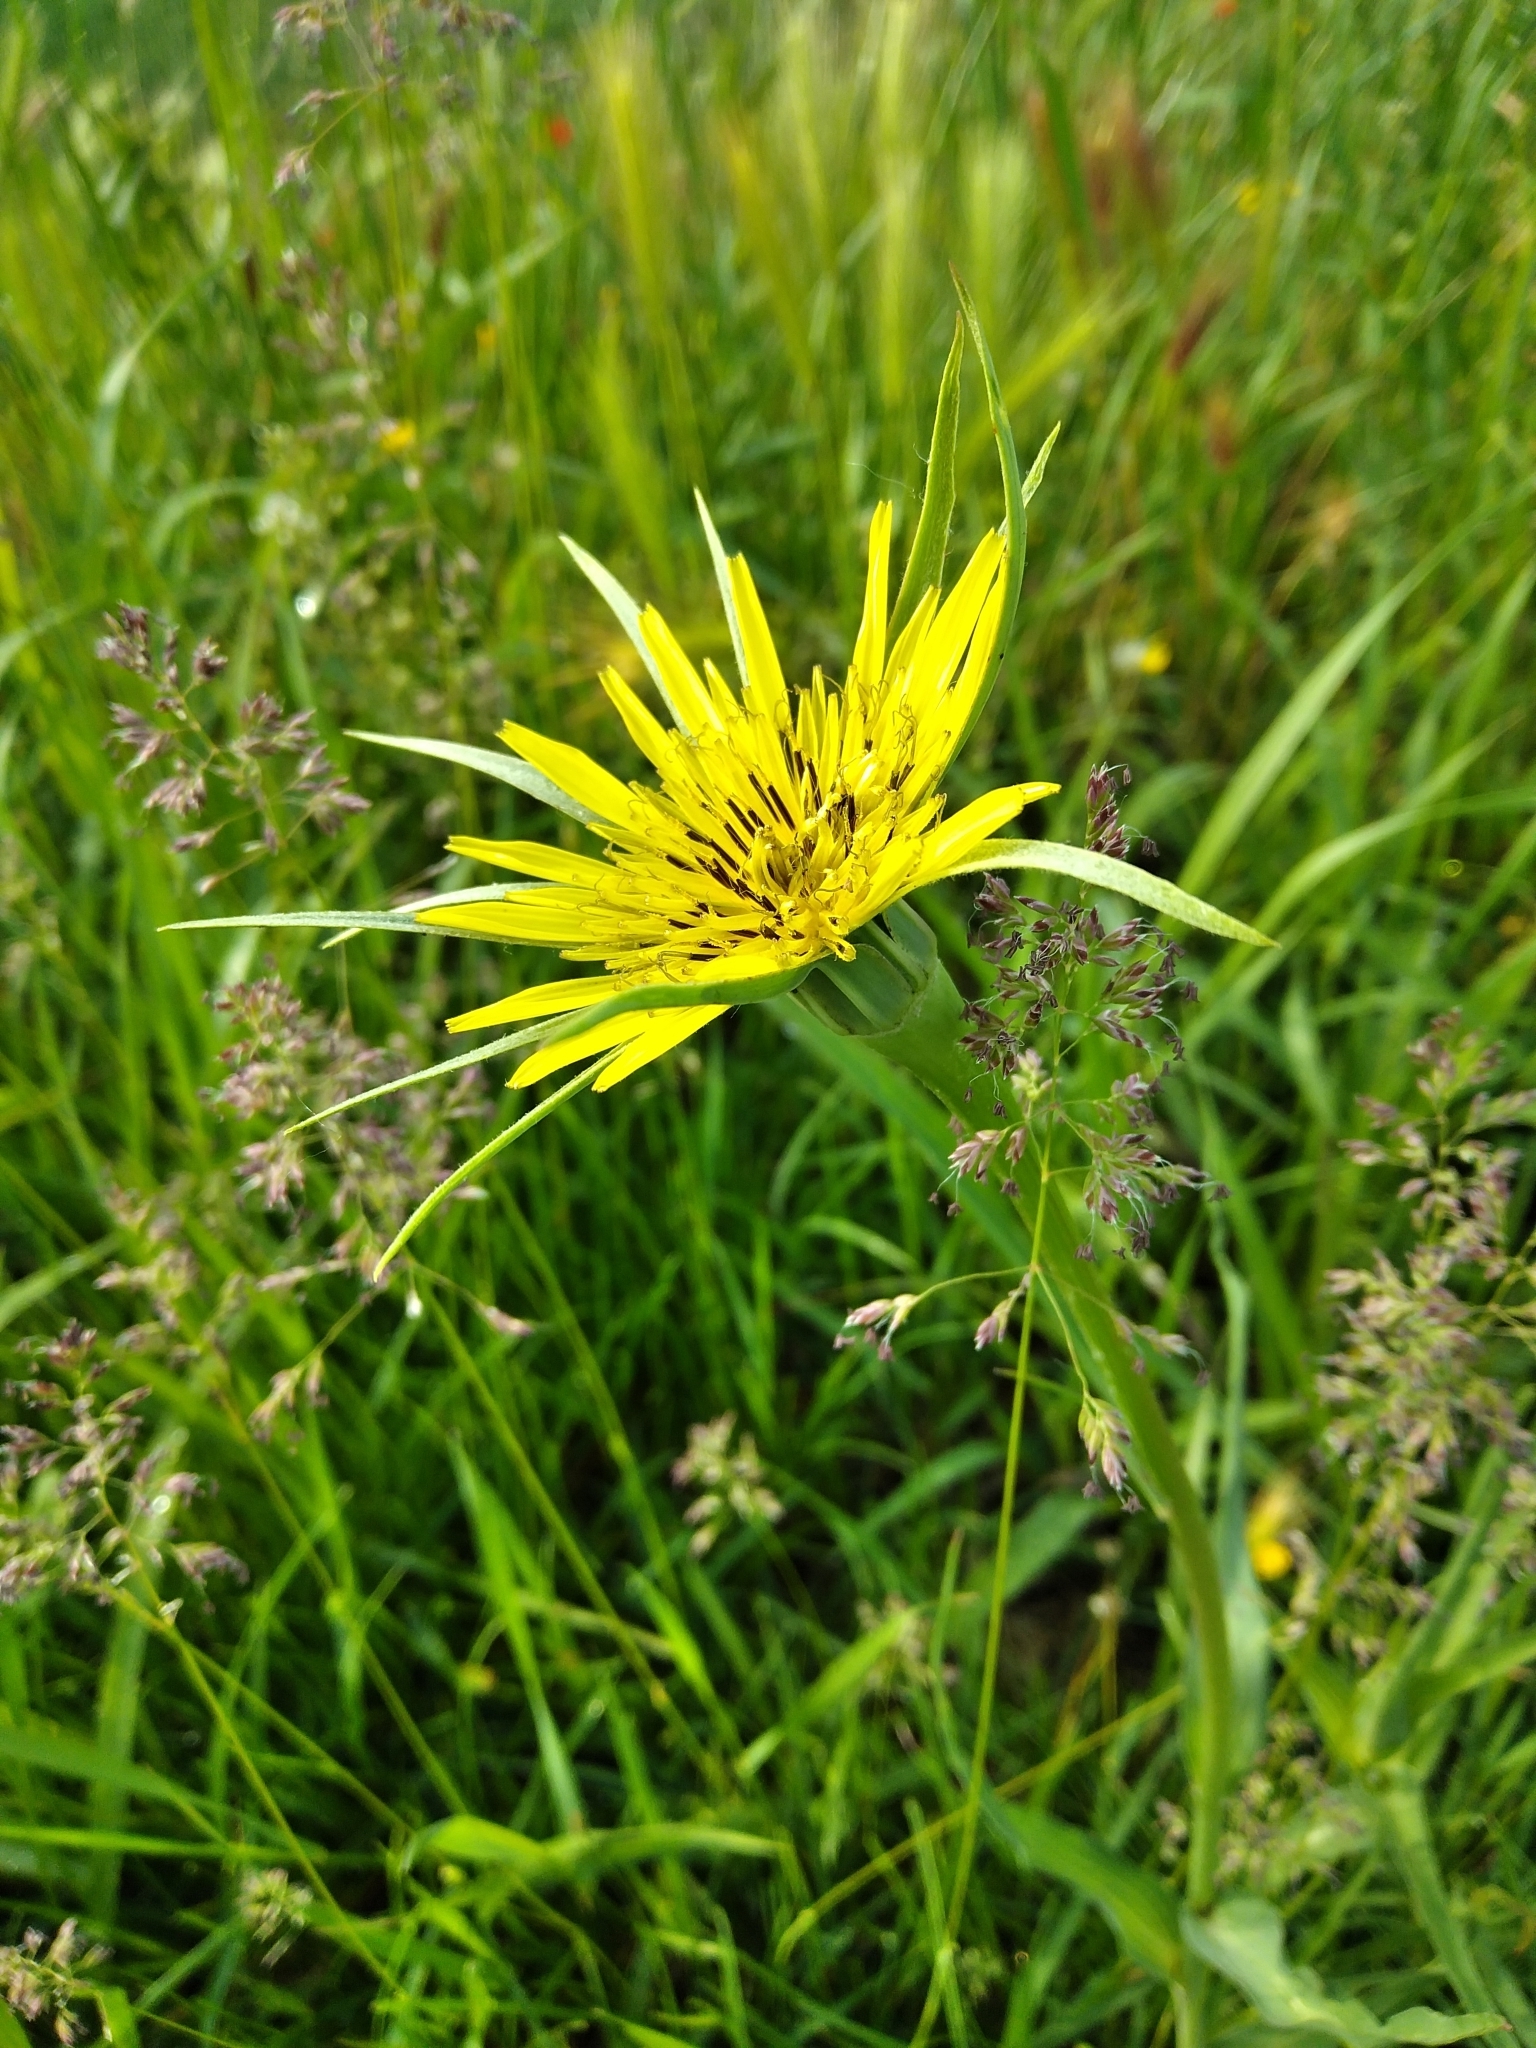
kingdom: Plantae
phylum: Tracheophyta
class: Magnoliopsida
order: Asterales
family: Asteraceae
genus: Tragopogon
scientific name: Tragopogon dubius
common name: Yellow salsify
